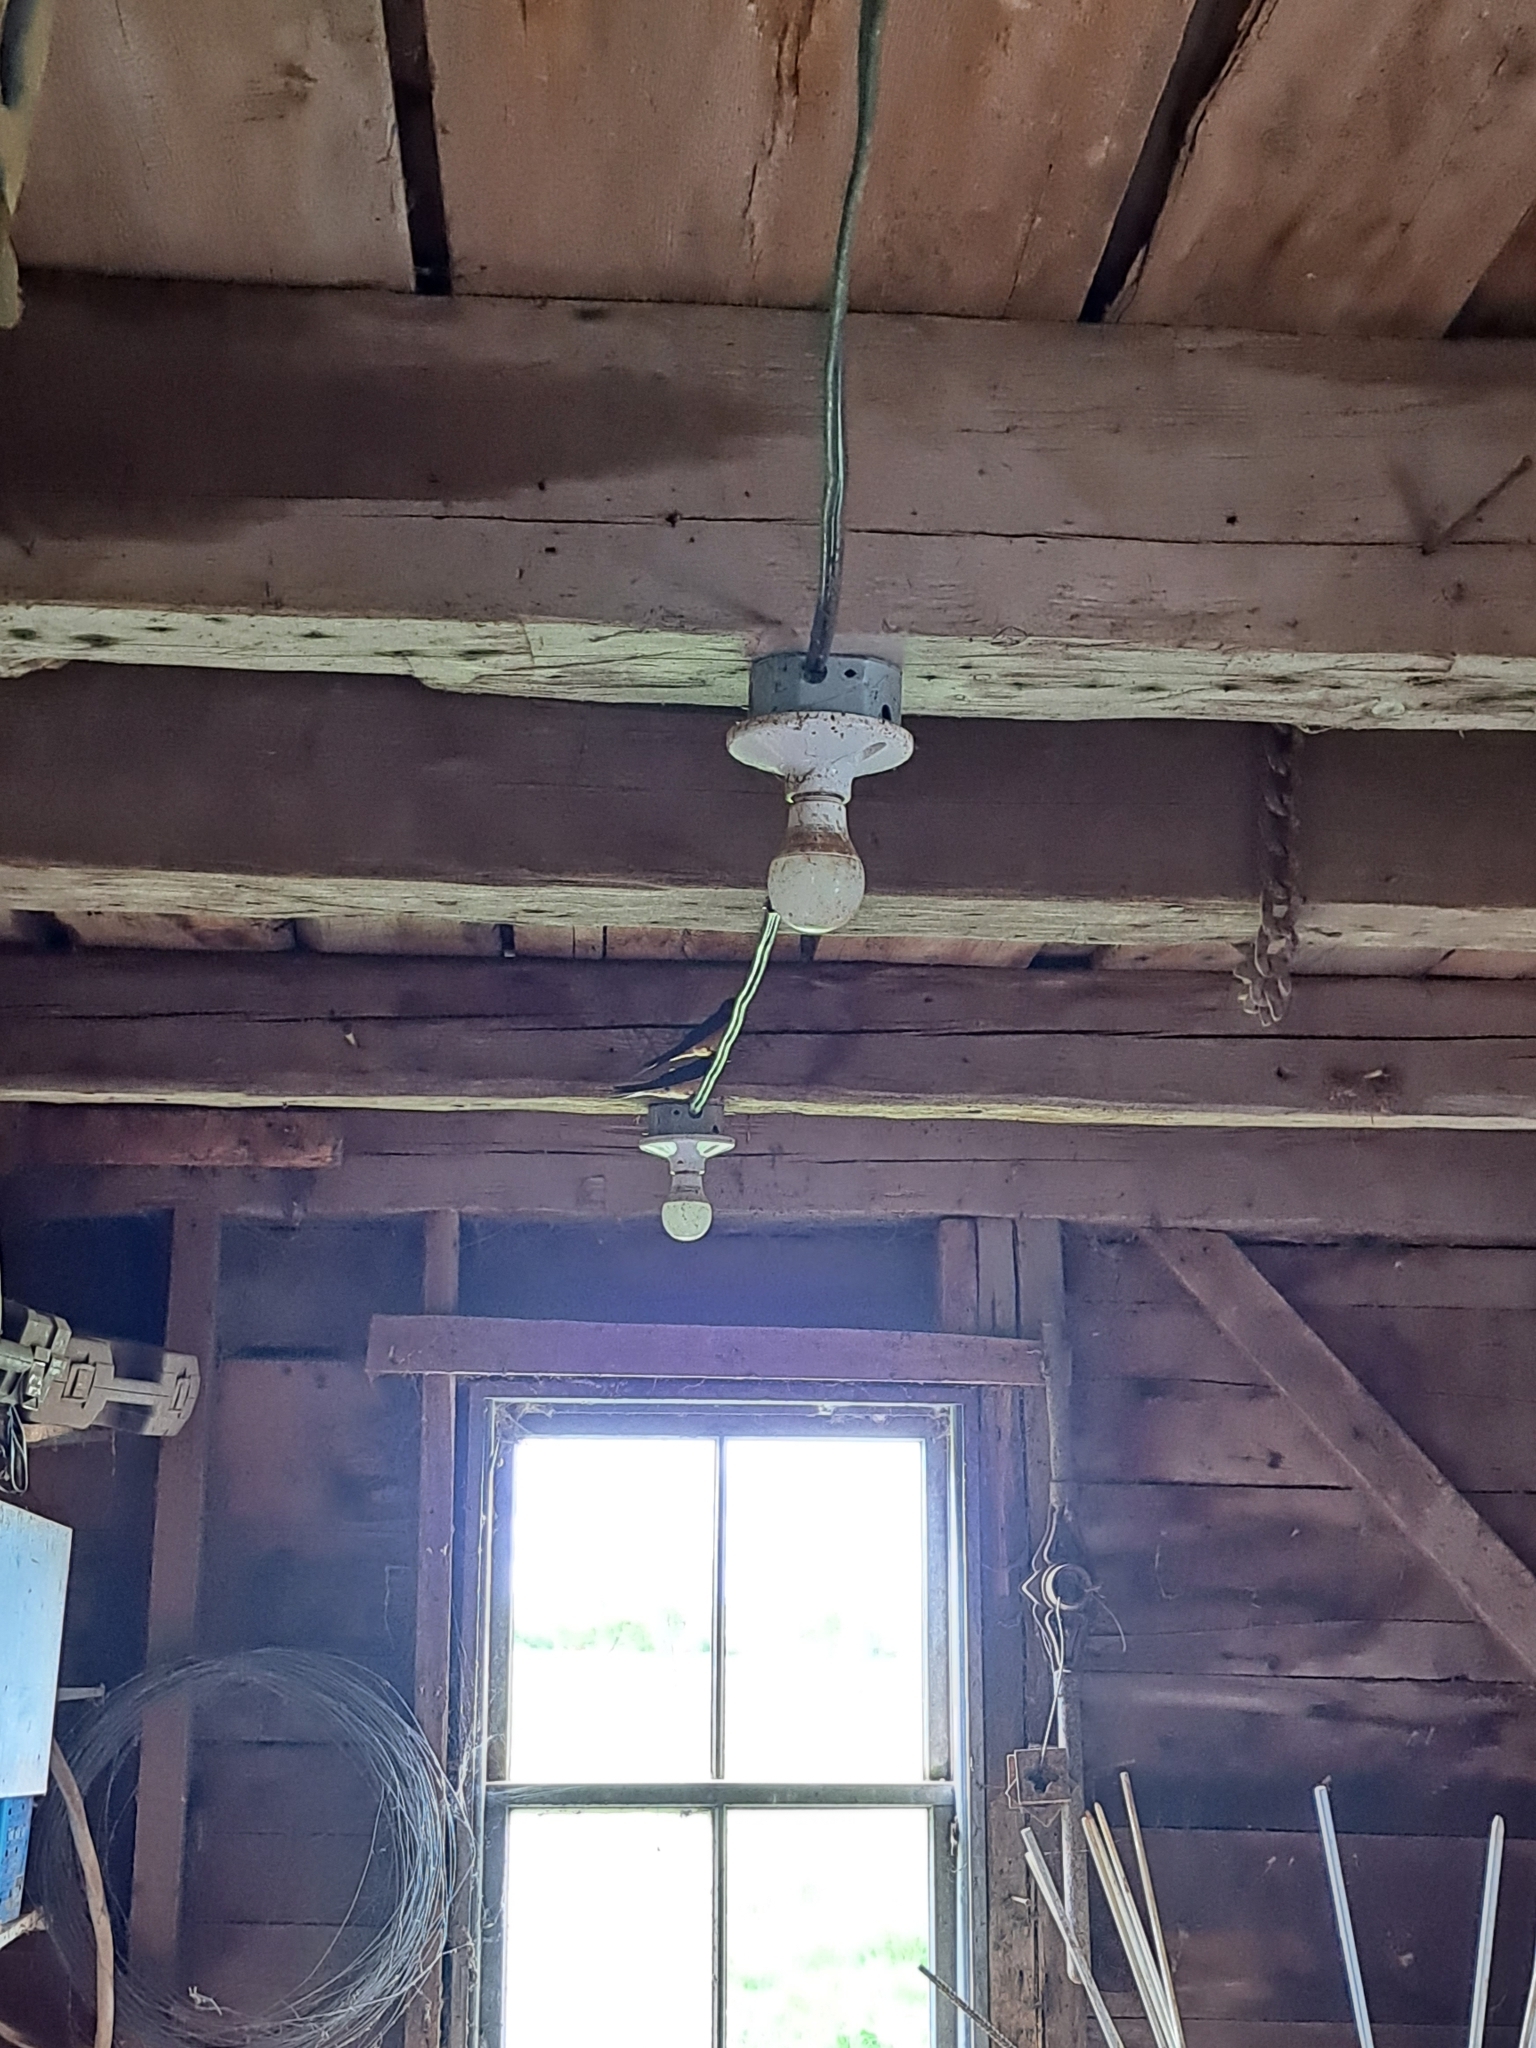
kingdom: Animalia
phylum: Chordata
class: Aves
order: Passeriformes
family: Hirundinidae
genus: Hirundo
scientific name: Hirundo rustica
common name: Barn swallow
